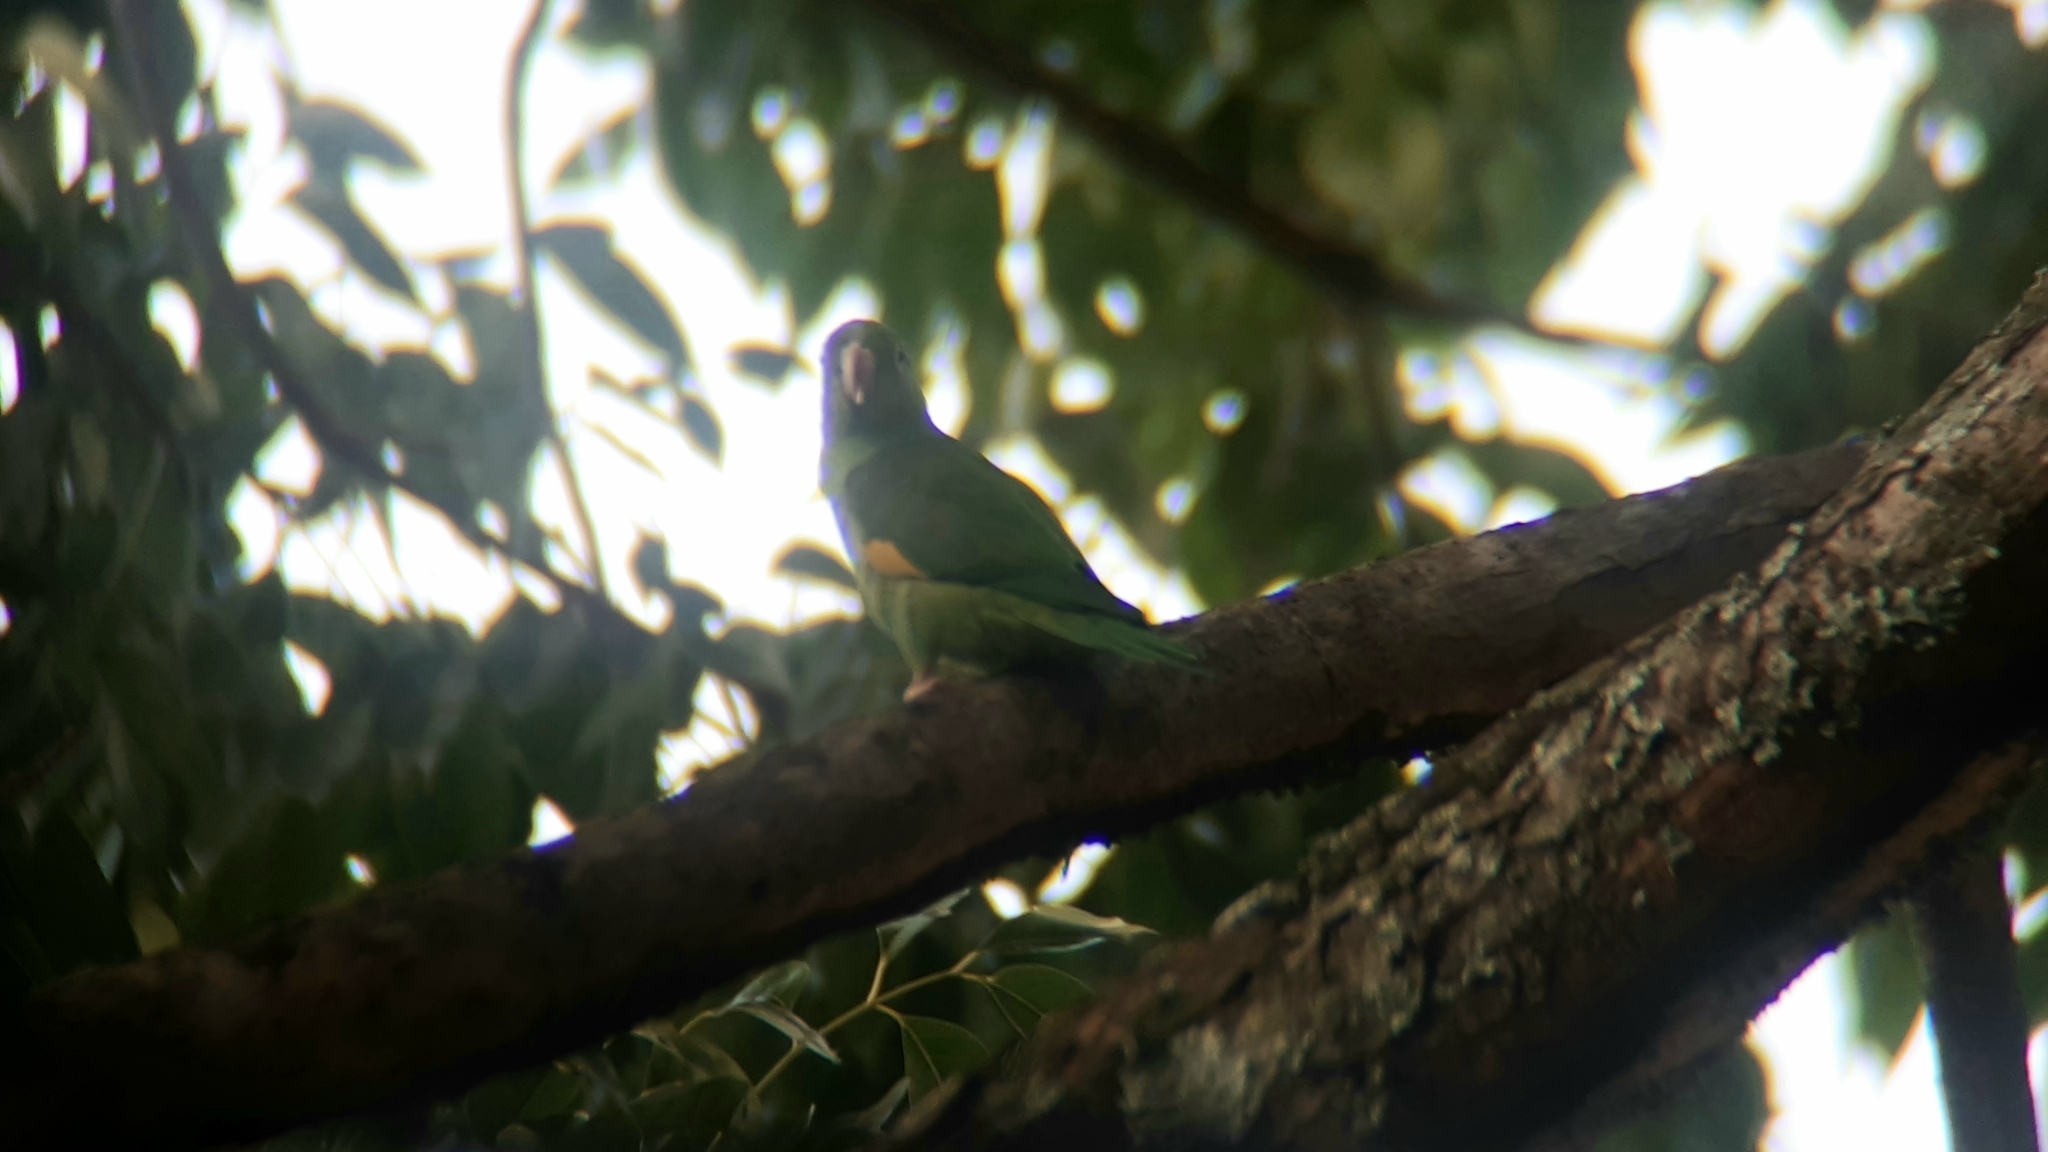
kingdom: Animalia
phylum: Chordata
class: Aves
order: Psittaciformes
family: Psittacidae
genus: Brotogeris
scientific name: Brotogeris chiriri
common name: Yellow-chevroned parakeet
